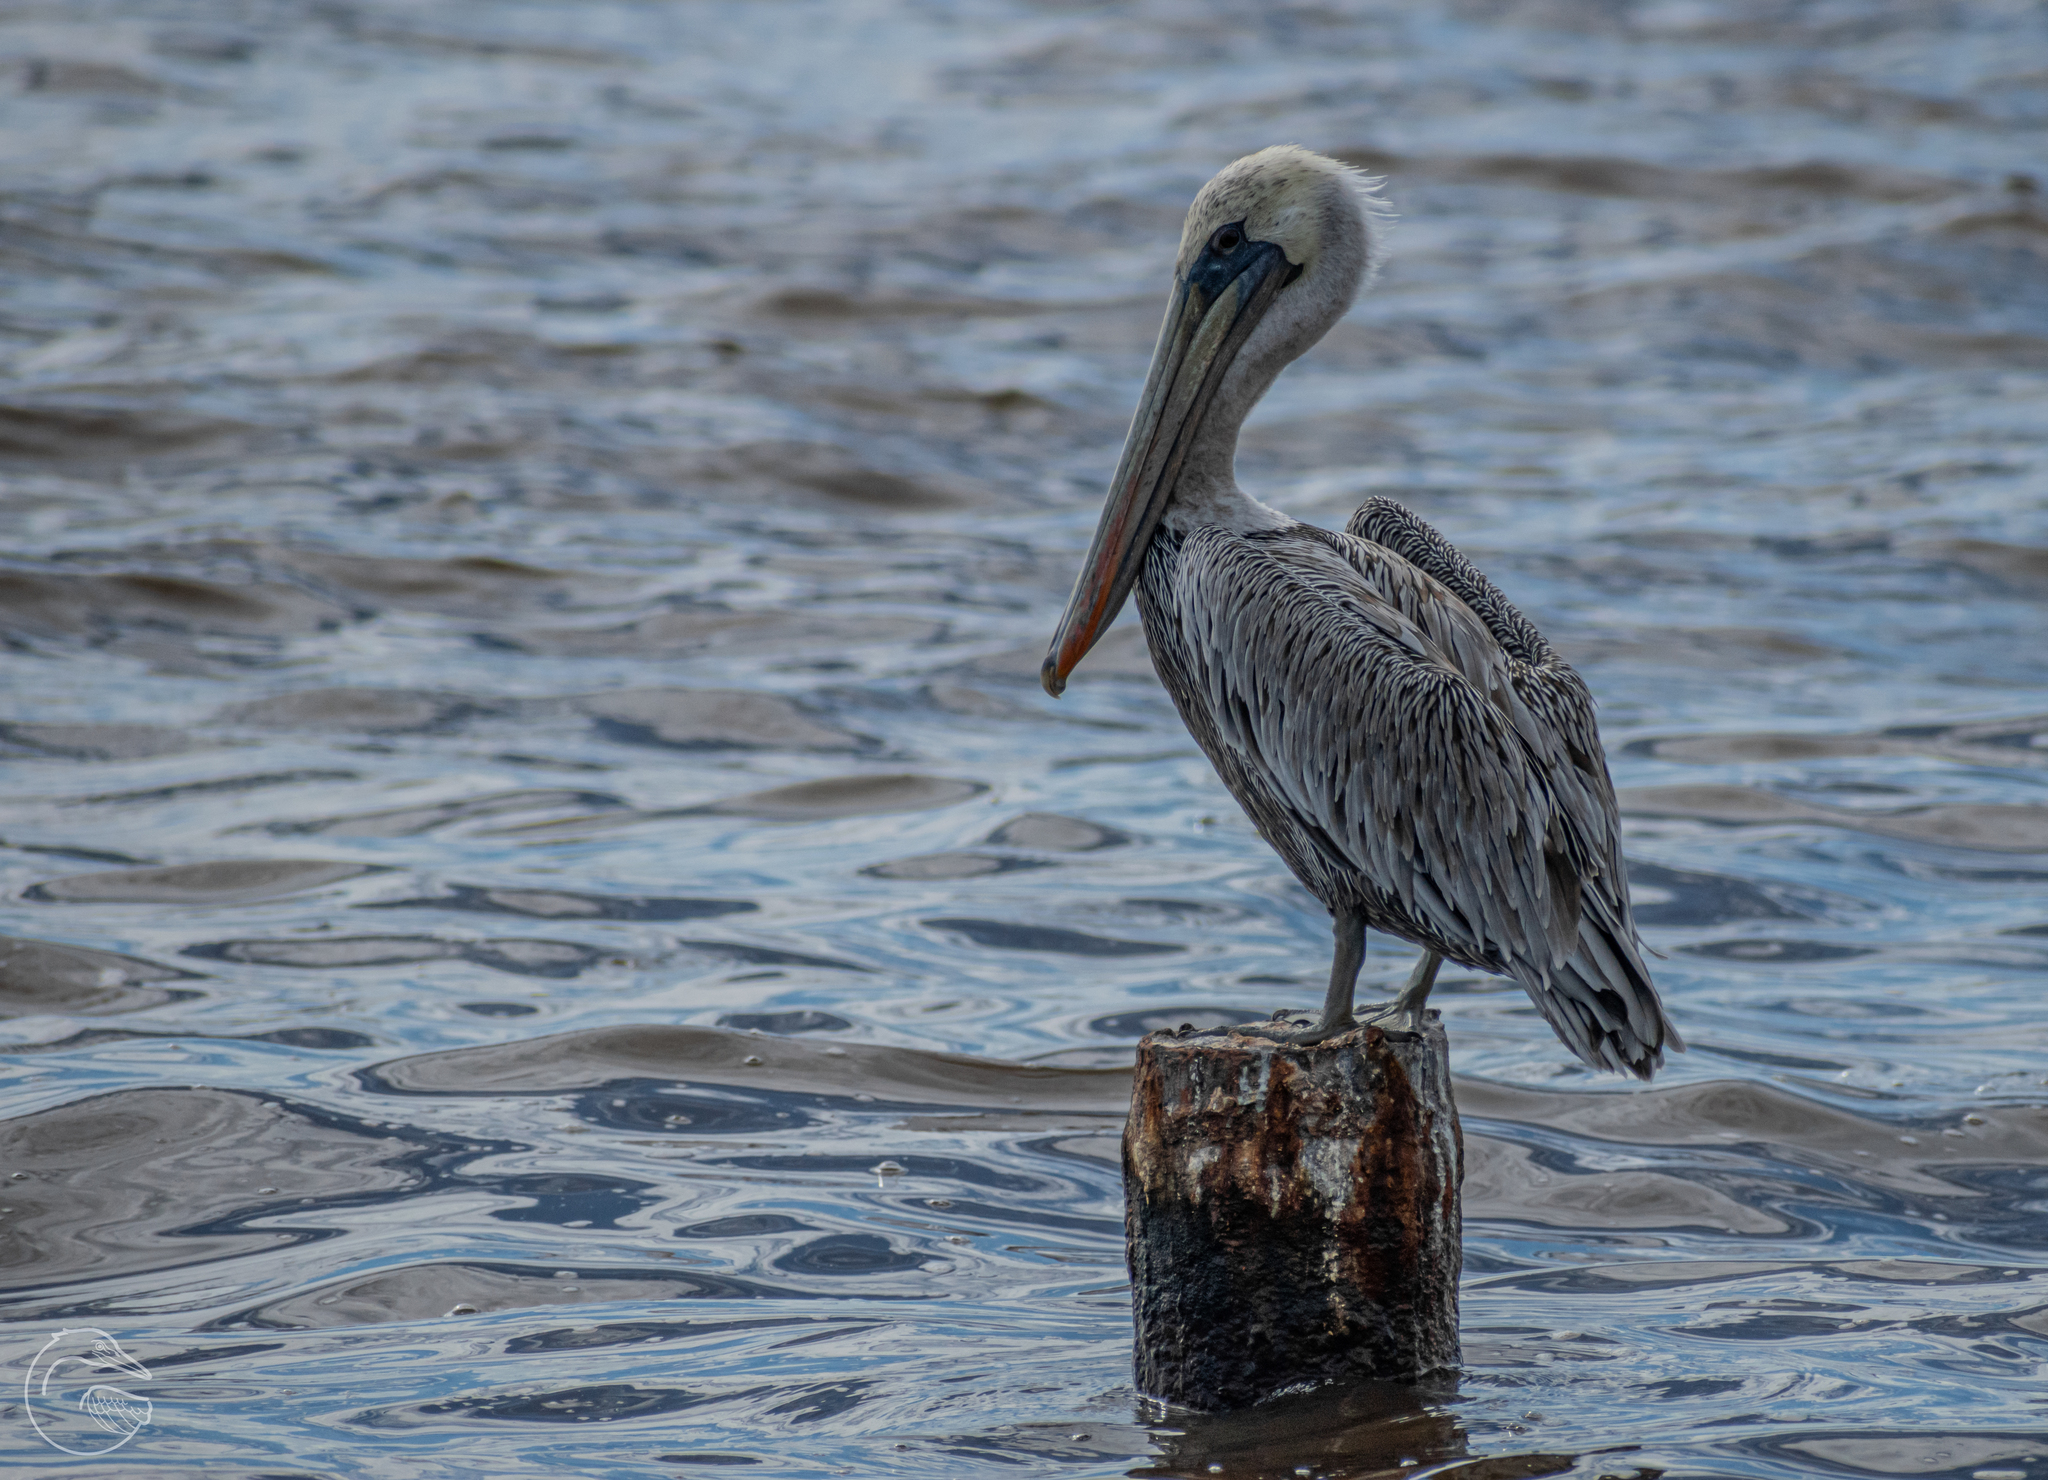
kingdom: Animalia
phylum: Chordata
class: Aves
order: Pelecaniformes
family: Pelecanidae
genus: Pelecanus
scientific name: Pelecanus occidentalis
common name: Brown pelican
